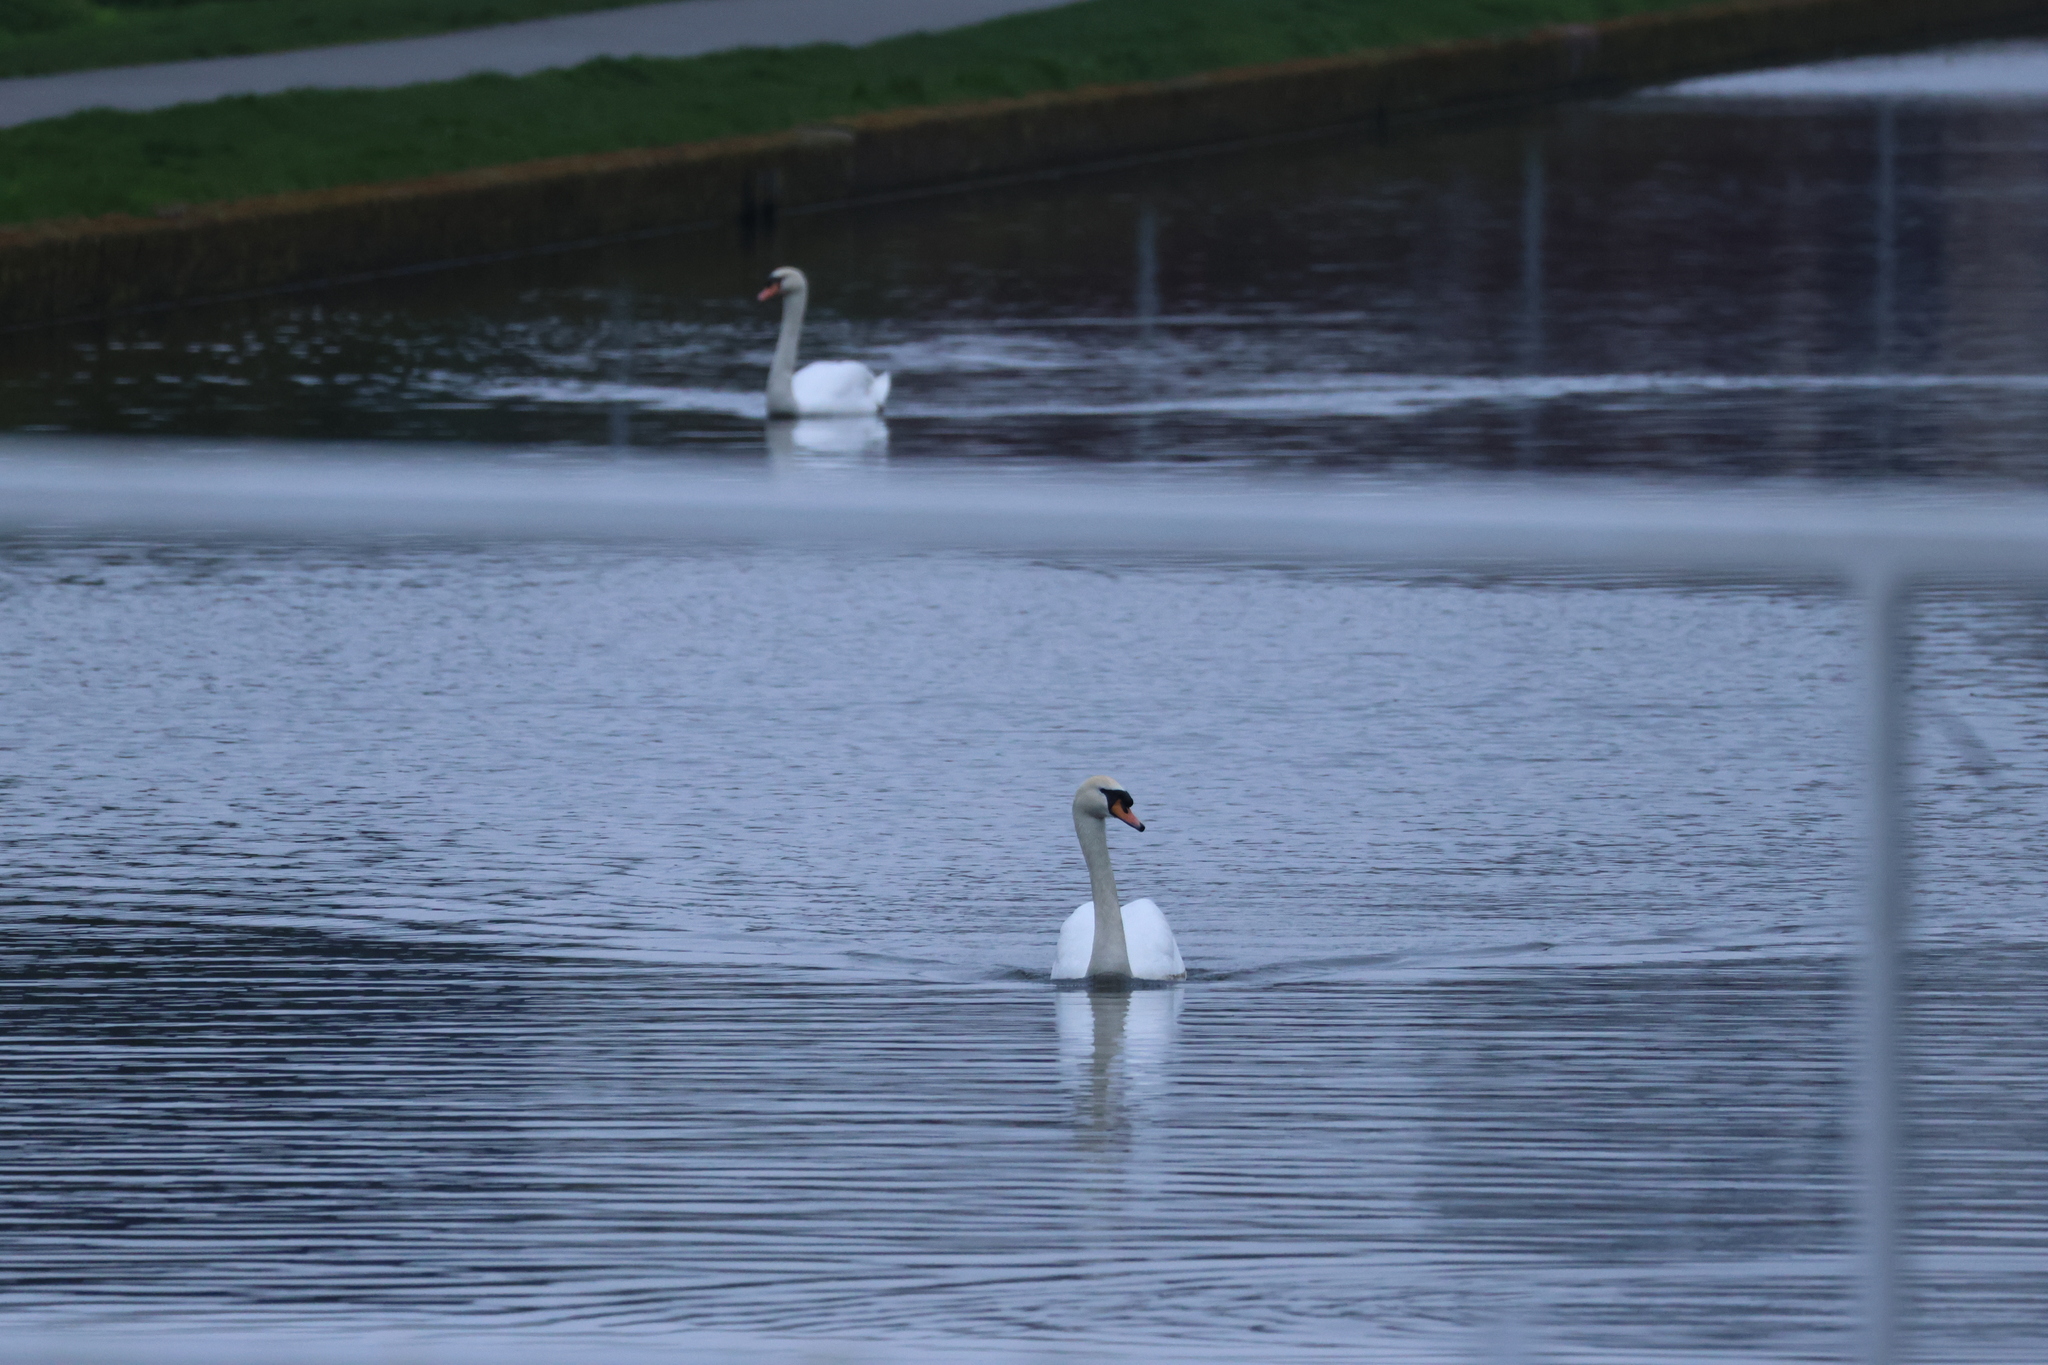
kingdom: Animalia
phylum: Chordata
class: Aves
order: Anseriformes
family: Anatidae
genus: Cygnus
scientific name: Cygnus olor
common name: Mute swan
